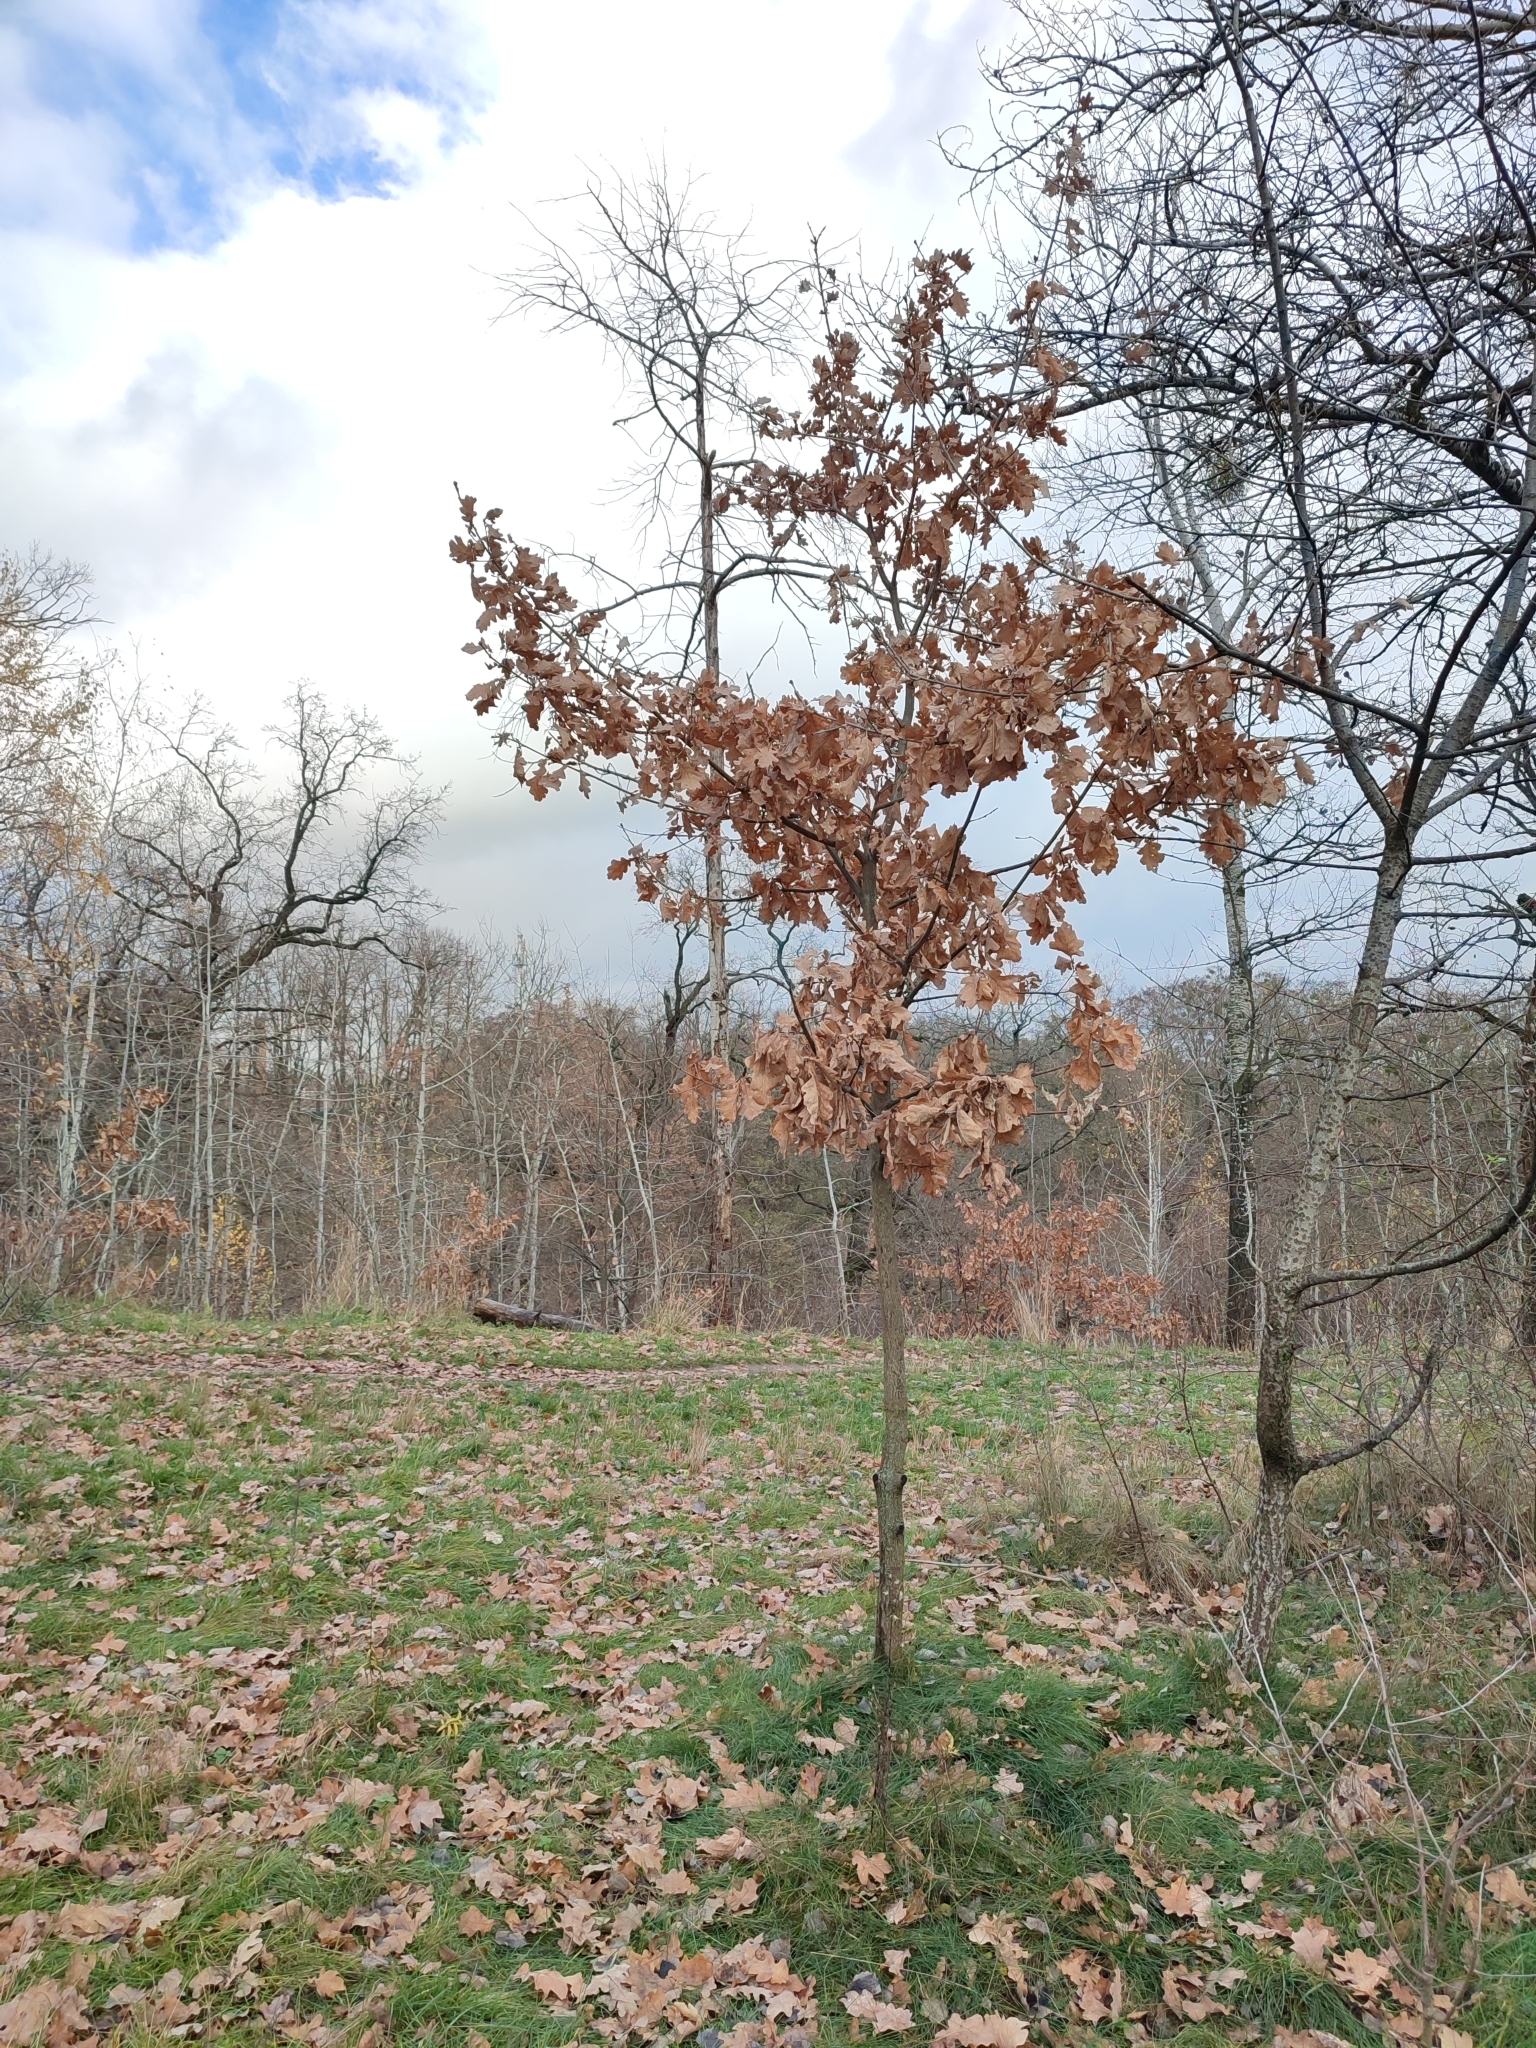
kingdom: Plantae
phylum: Tracheophyta
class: Magnoliopsida
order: Fagales
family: Fagaceae
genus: Quercus
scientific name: Quercus robur
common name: Pedunculate oak
